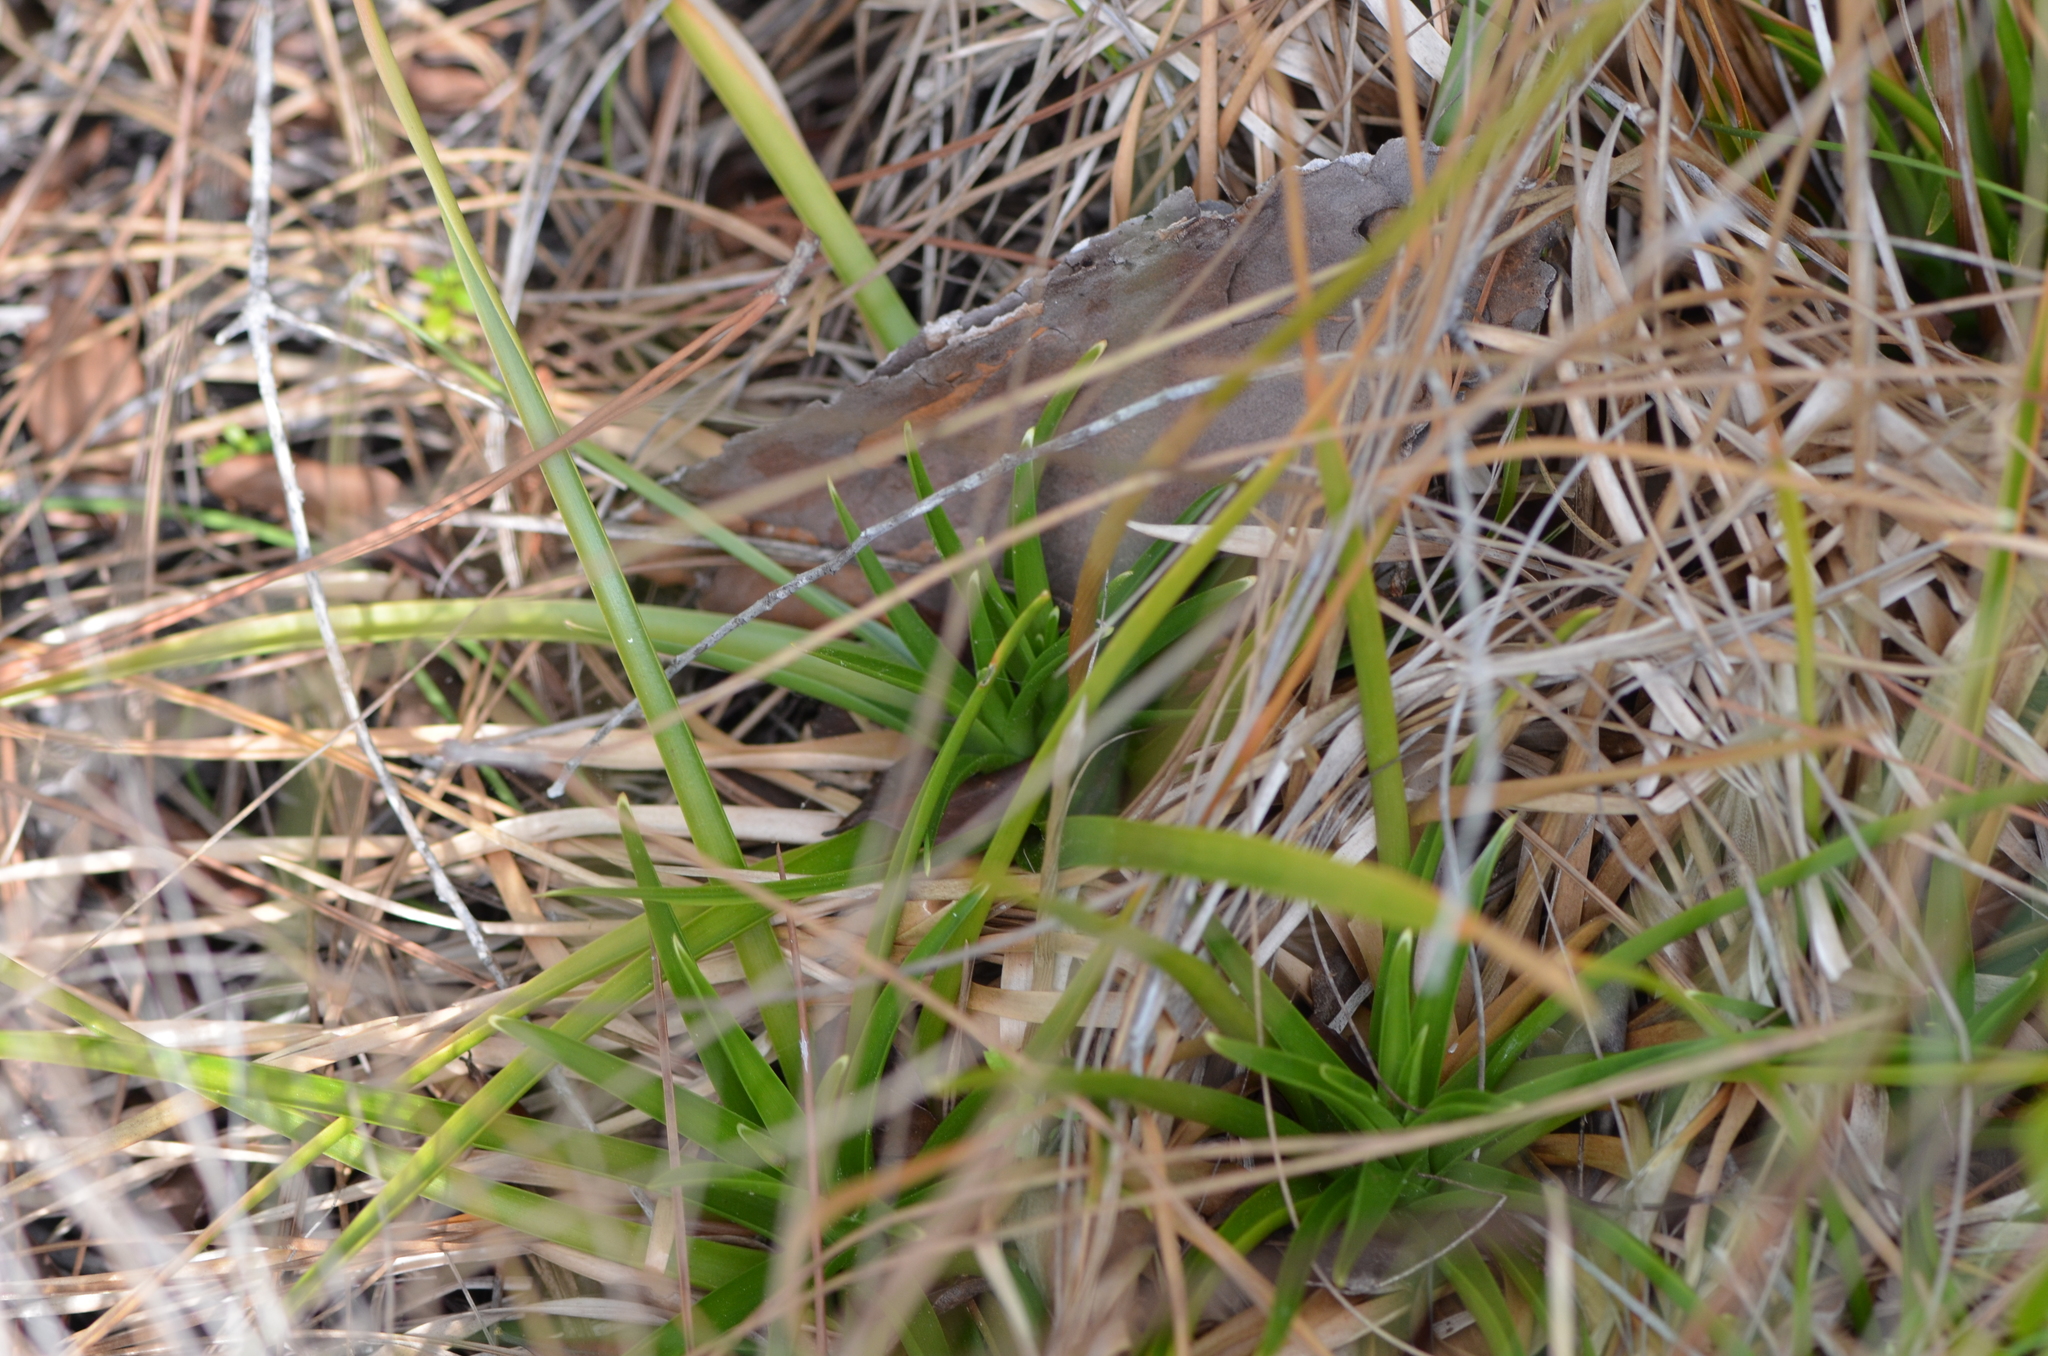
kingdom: Plantae
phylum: Tracheophyta
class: Liliopsida
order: Poales
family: Eriocaulaceae
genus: Eriocaulon
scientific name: Eriocaulon decangulare
